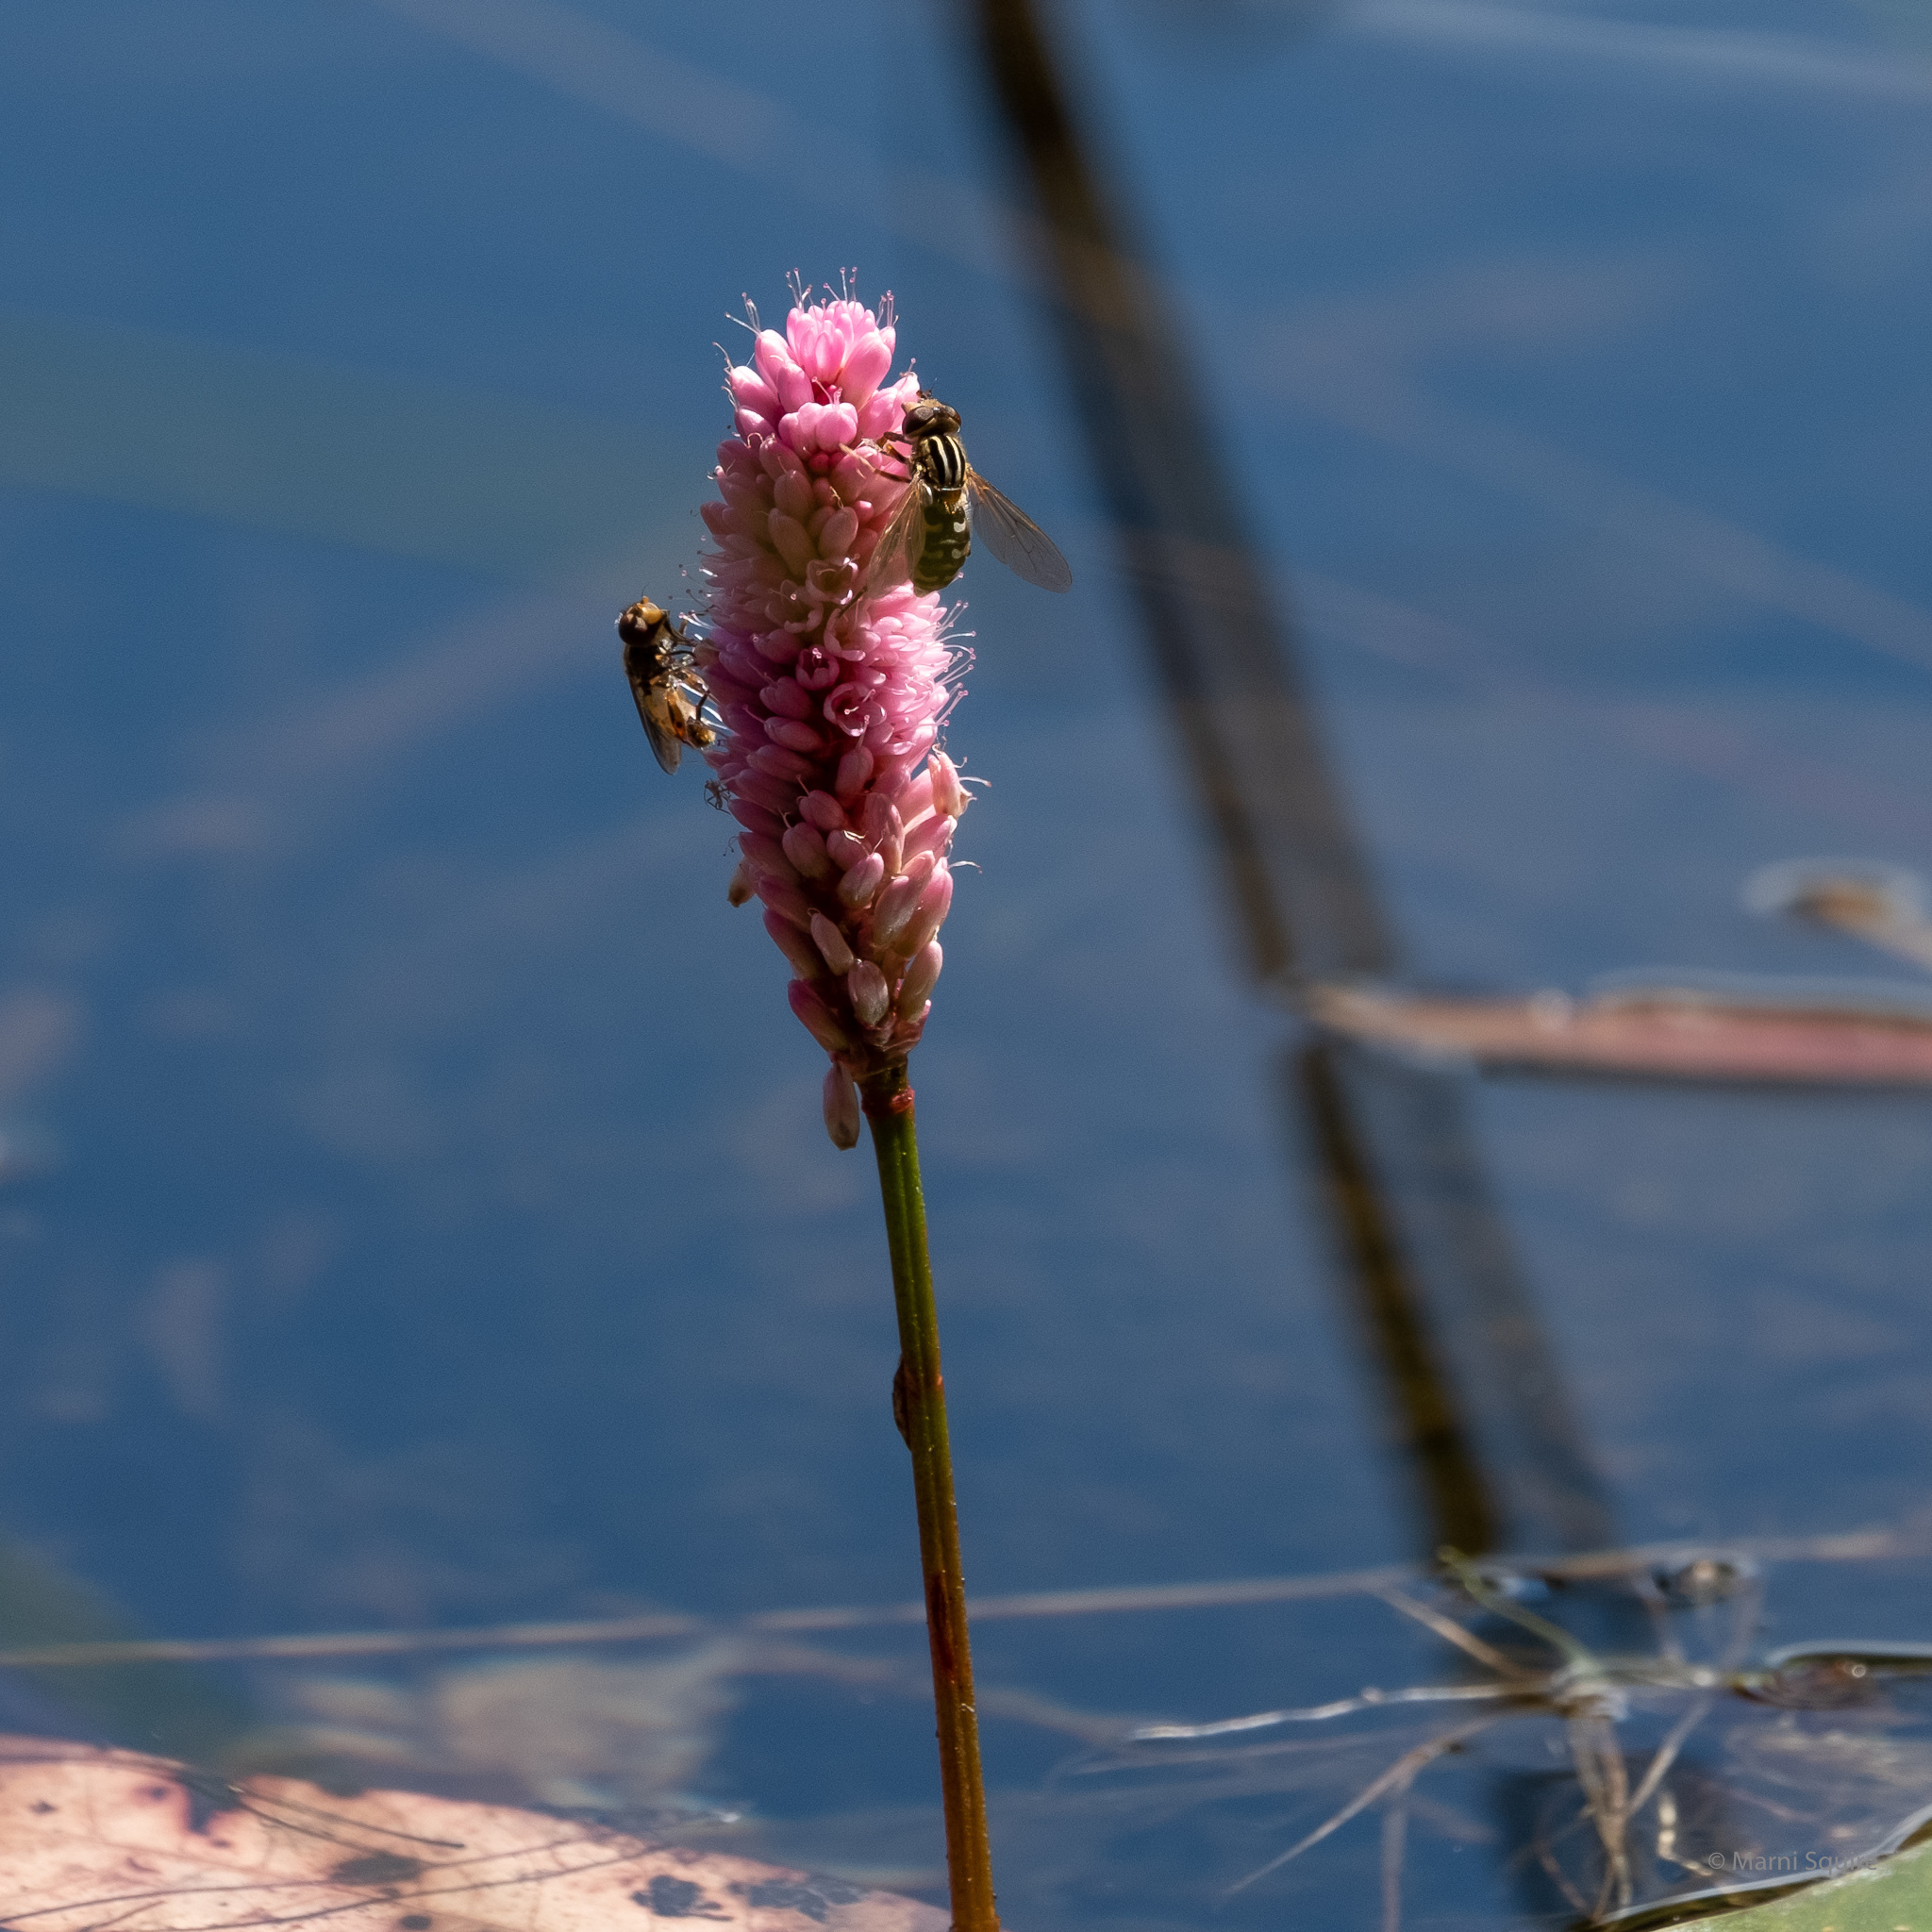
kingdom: Plantae
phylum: Tracheophyta
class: Magnoliopsida
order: Caryophyllales
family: Polygonaceae
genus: Persicaria
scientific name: Persicaria amphibia
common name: Amphibious bistort
